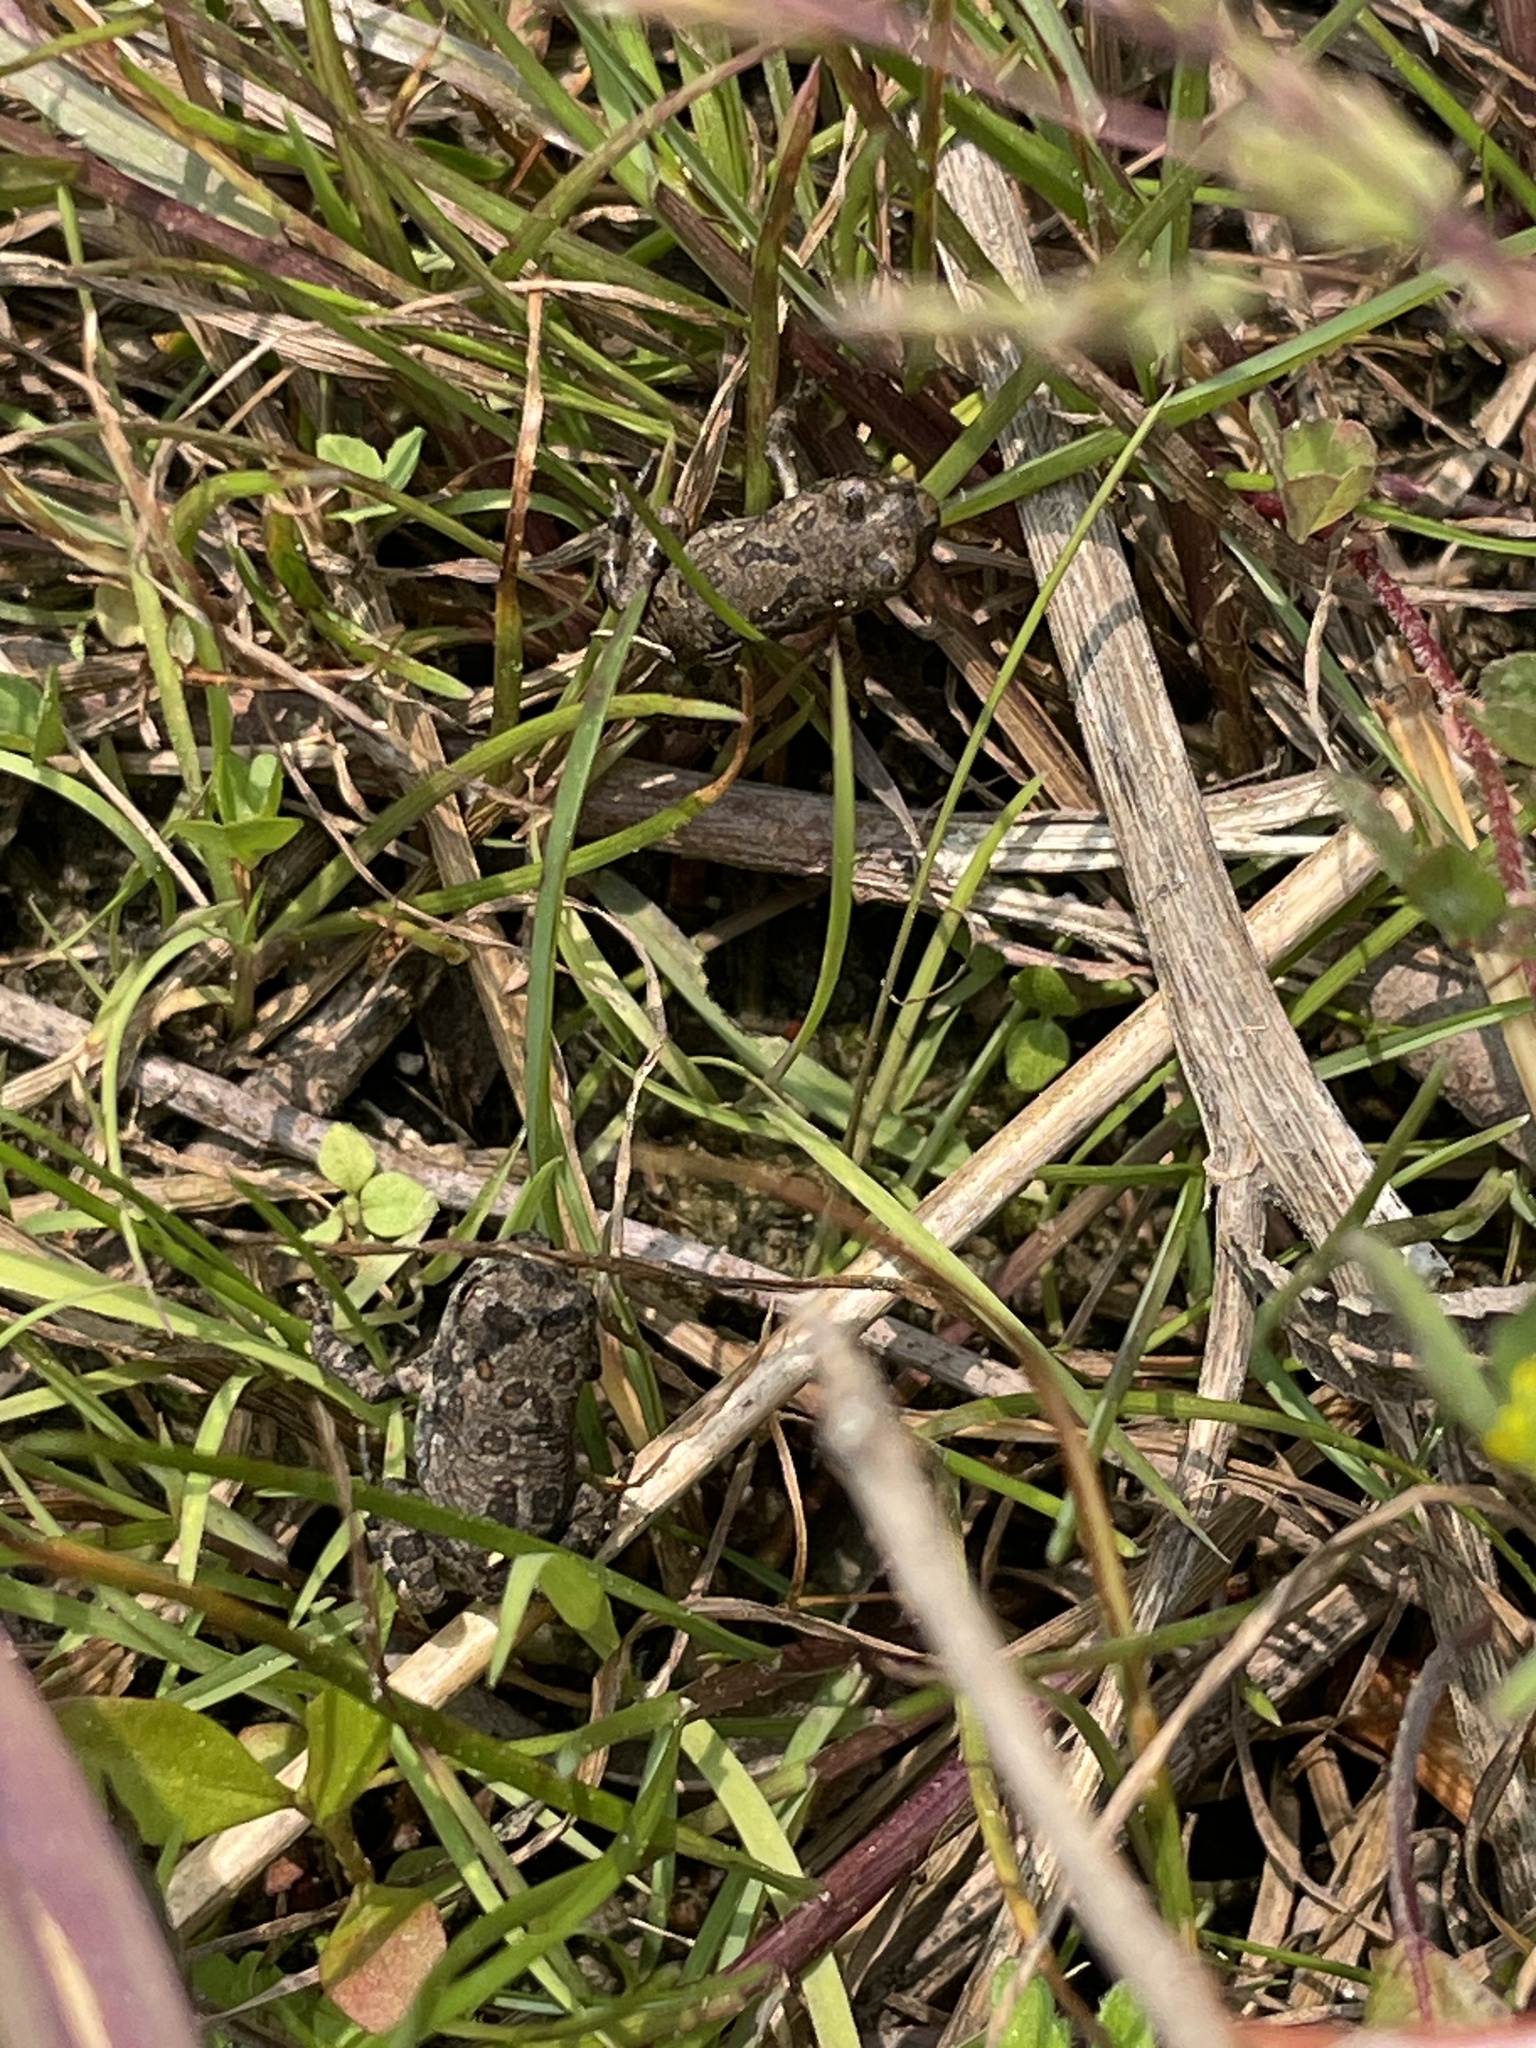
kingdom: Animalia
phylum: Chordata
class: Amphibia
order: Anura
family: Bufonidae
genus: Anaxyrus
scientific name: Anaxyrus fowleri
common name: Fowler's toad
